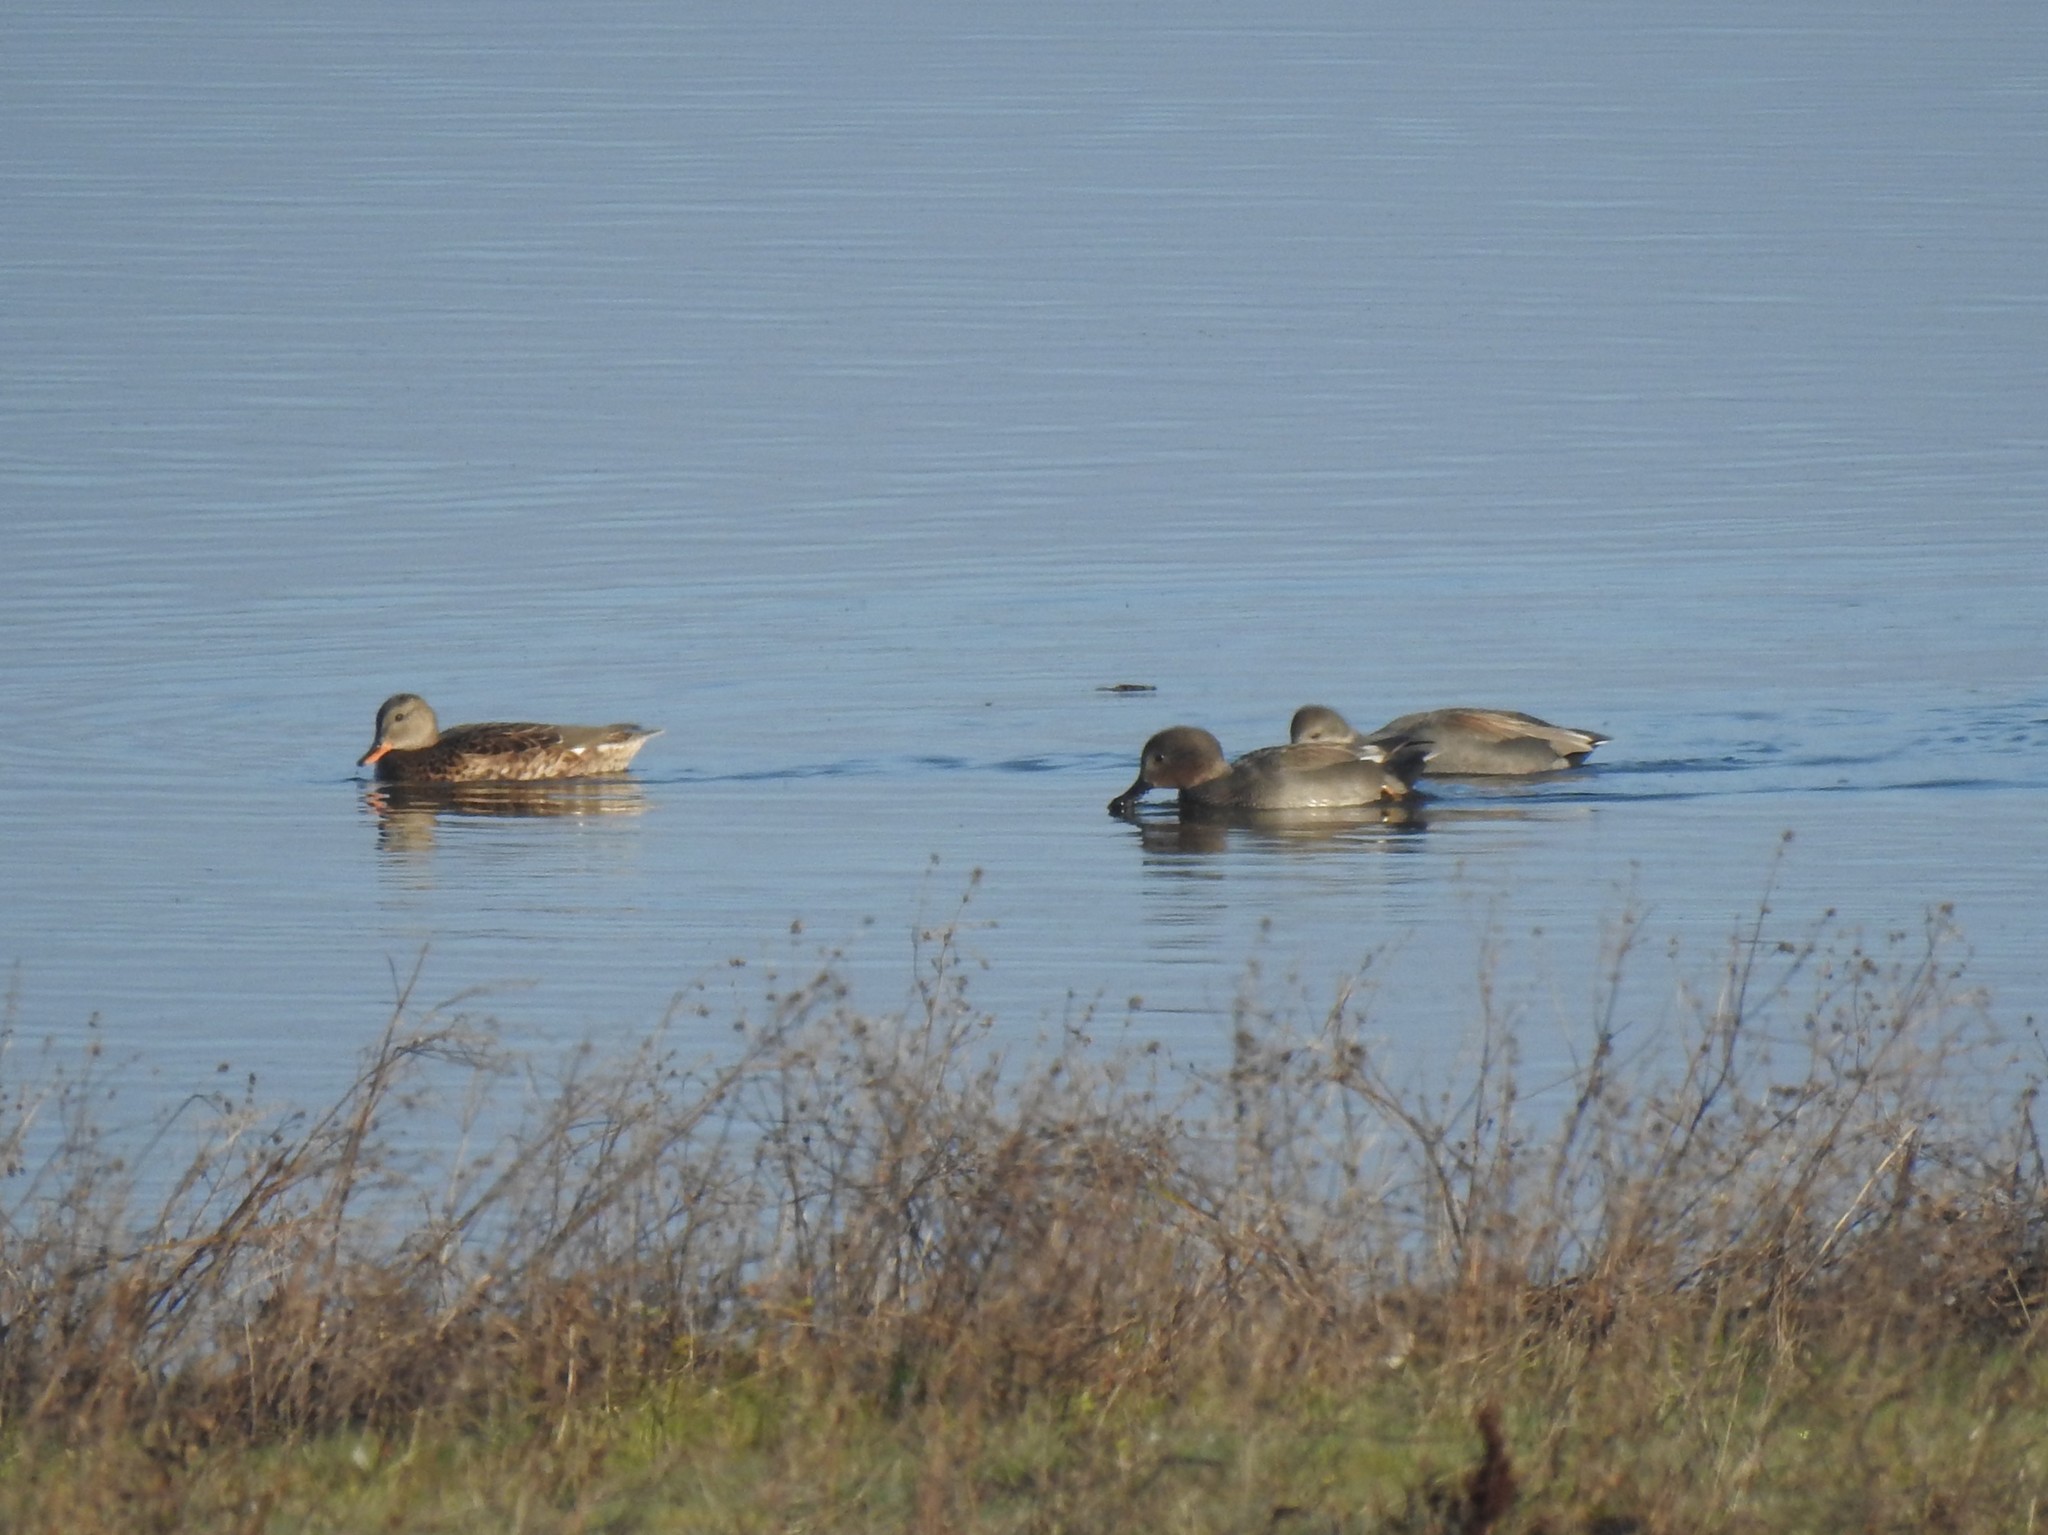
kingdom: Animalia
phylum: Chordata
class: Aves
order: Anseriformes
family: Anatidae
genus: Mareca
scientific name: Mareca strepera
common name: Gadwall
